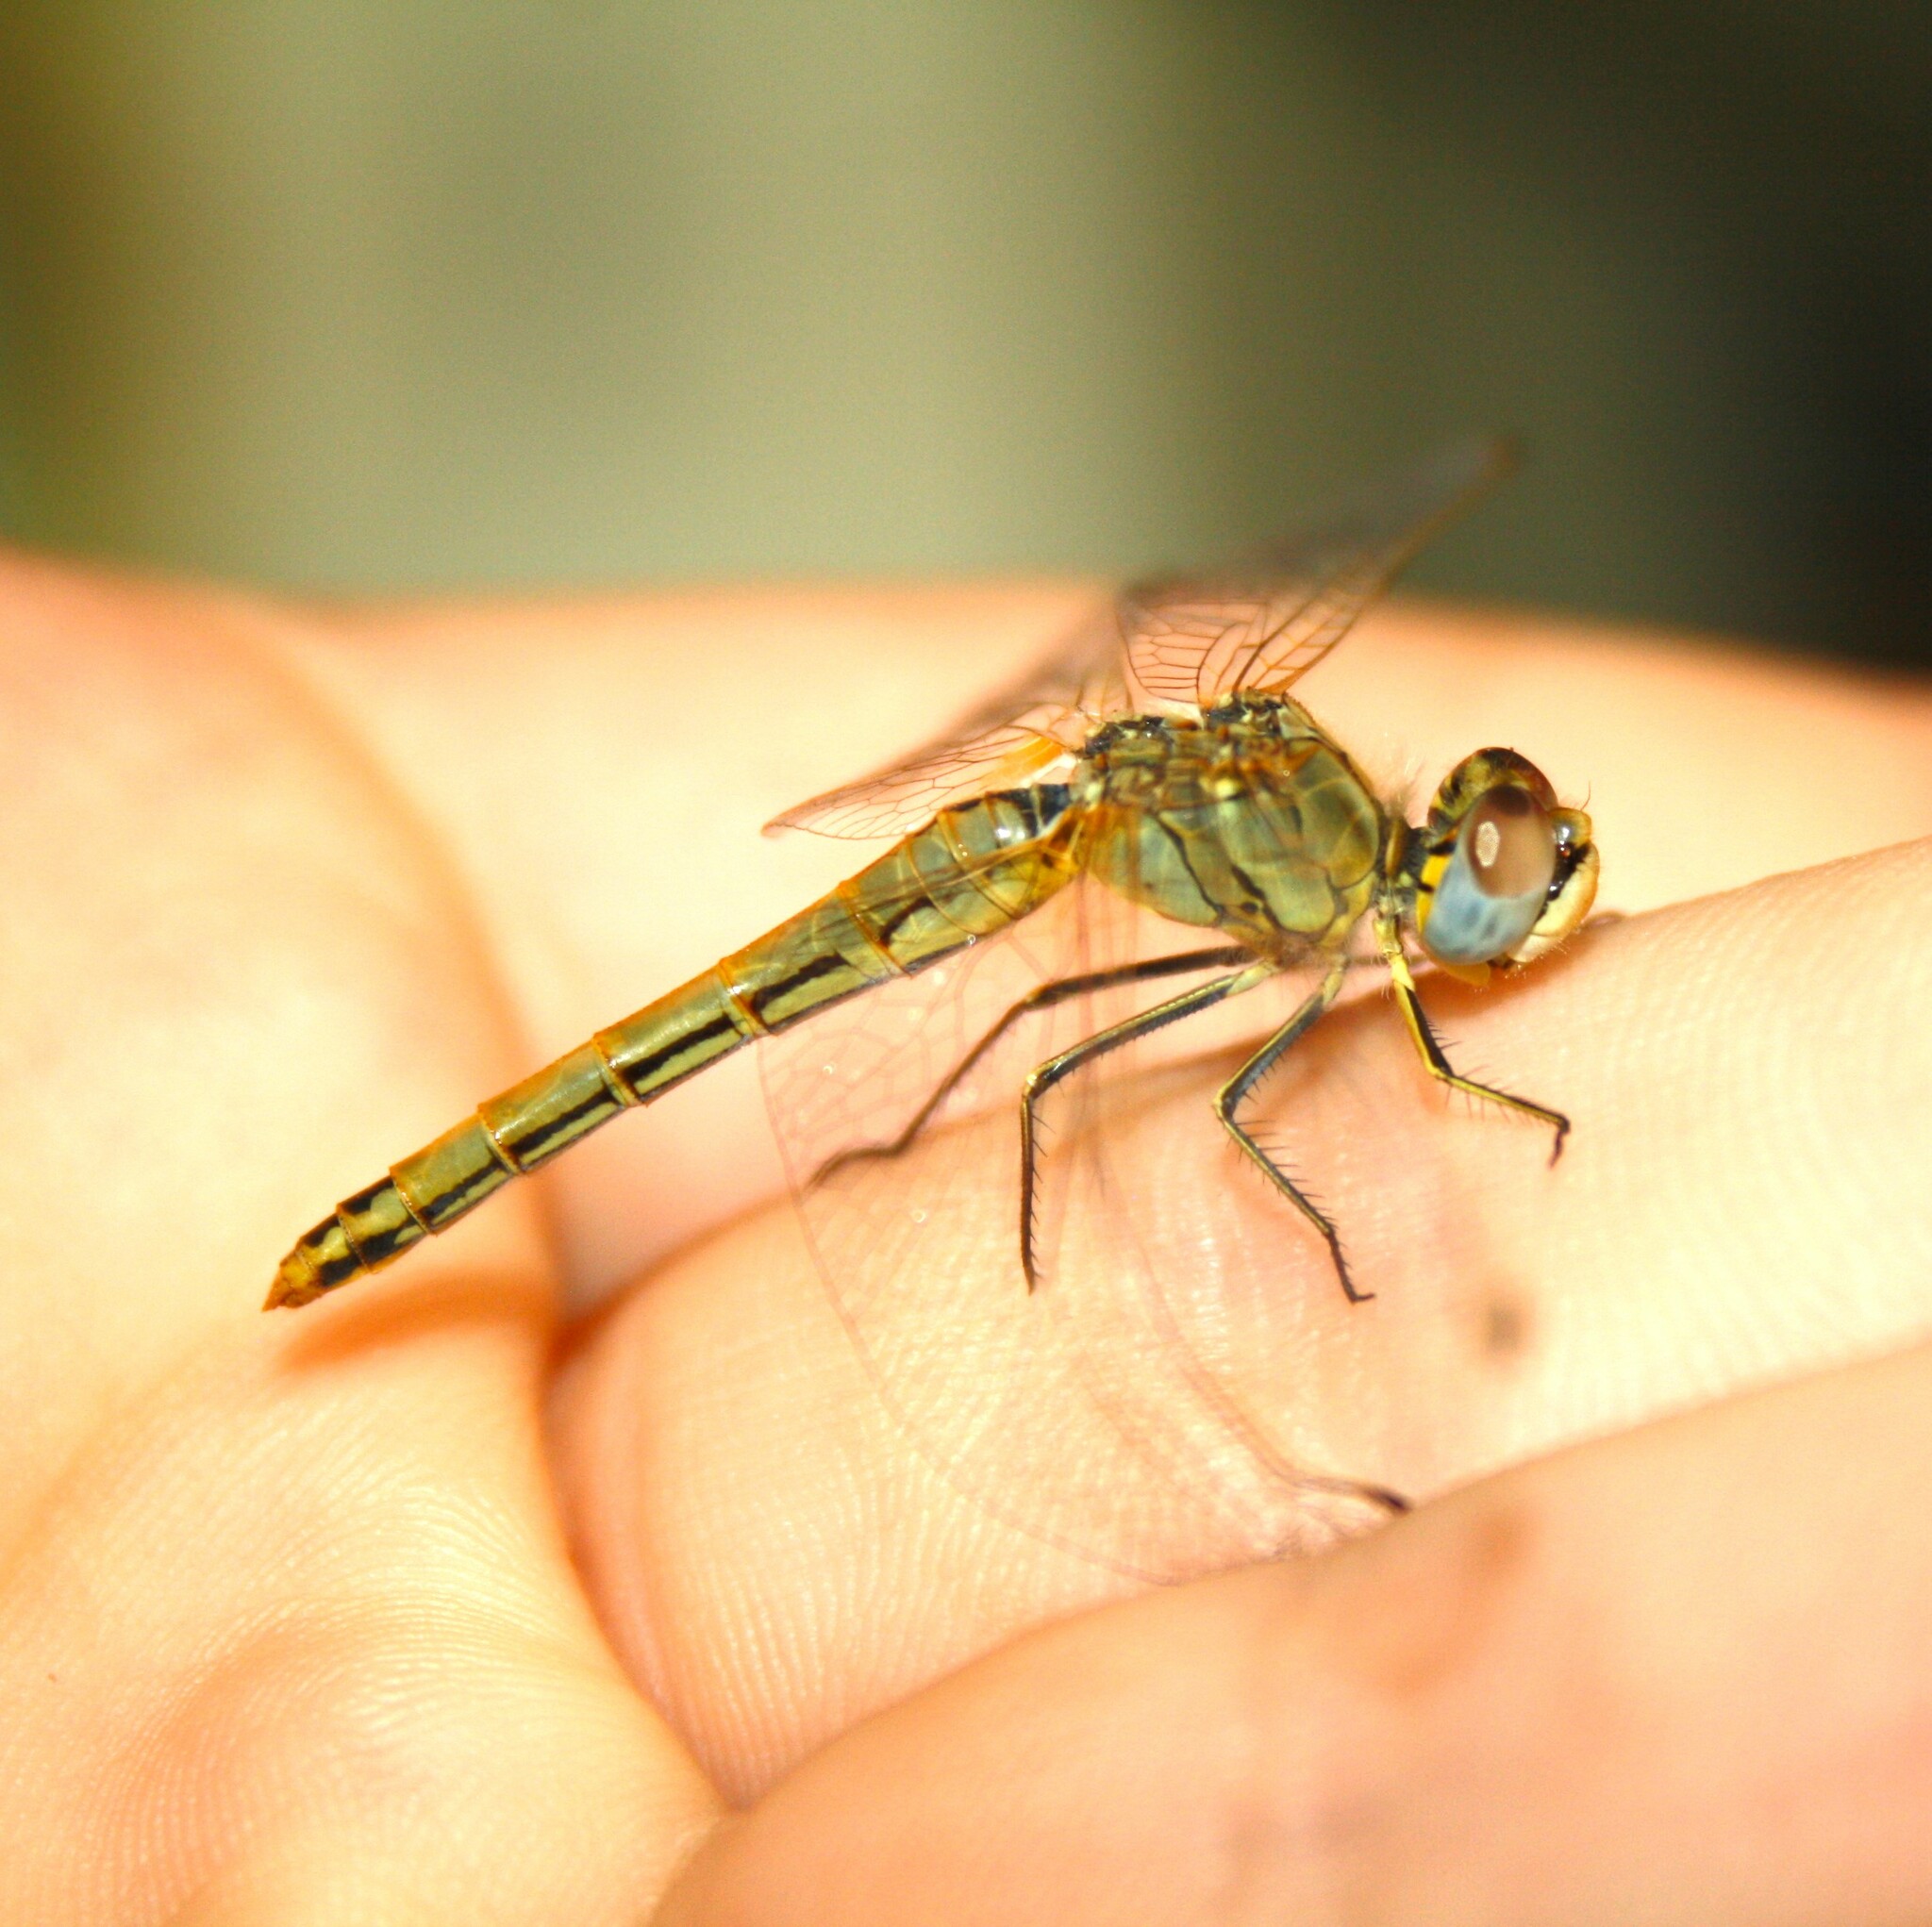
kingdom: Animalia
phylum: Arthropoda
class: Insecta
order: Odonata
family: Libellulidae
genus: Sympetrum
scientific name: Sympetrum fonscolombii
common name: Red-veined darter
